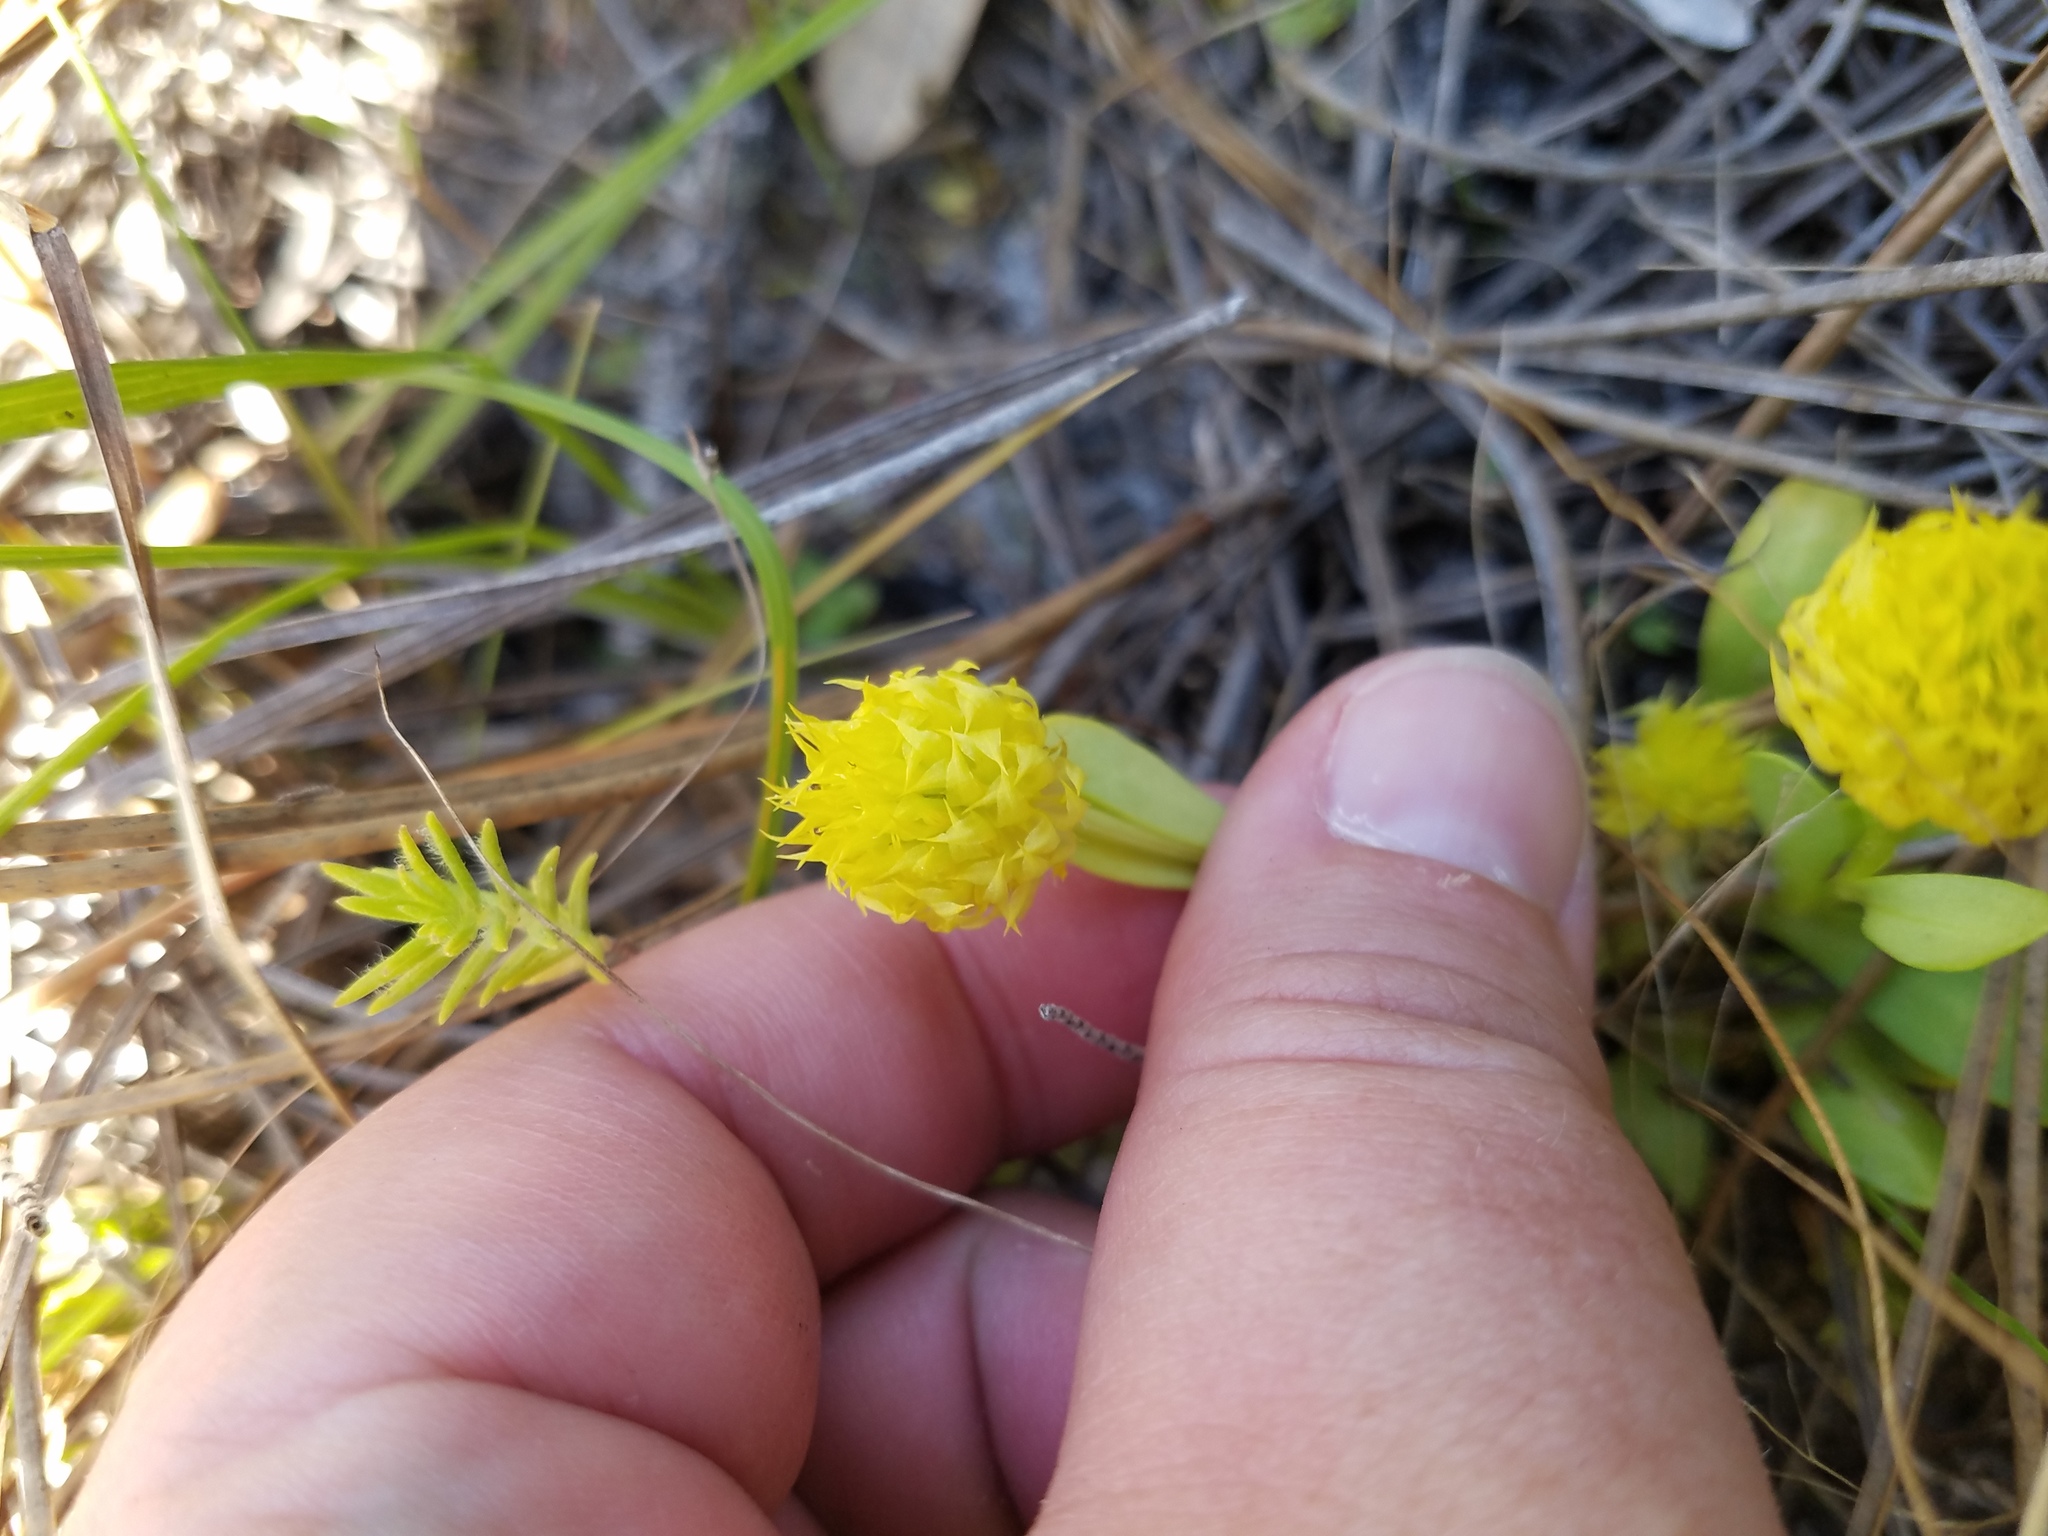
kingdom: Plantae
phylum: Tracheophyta
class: Magnoliopsida
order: Fabales
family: Polygalaceae
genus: Polygala
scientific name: Polygala nana
